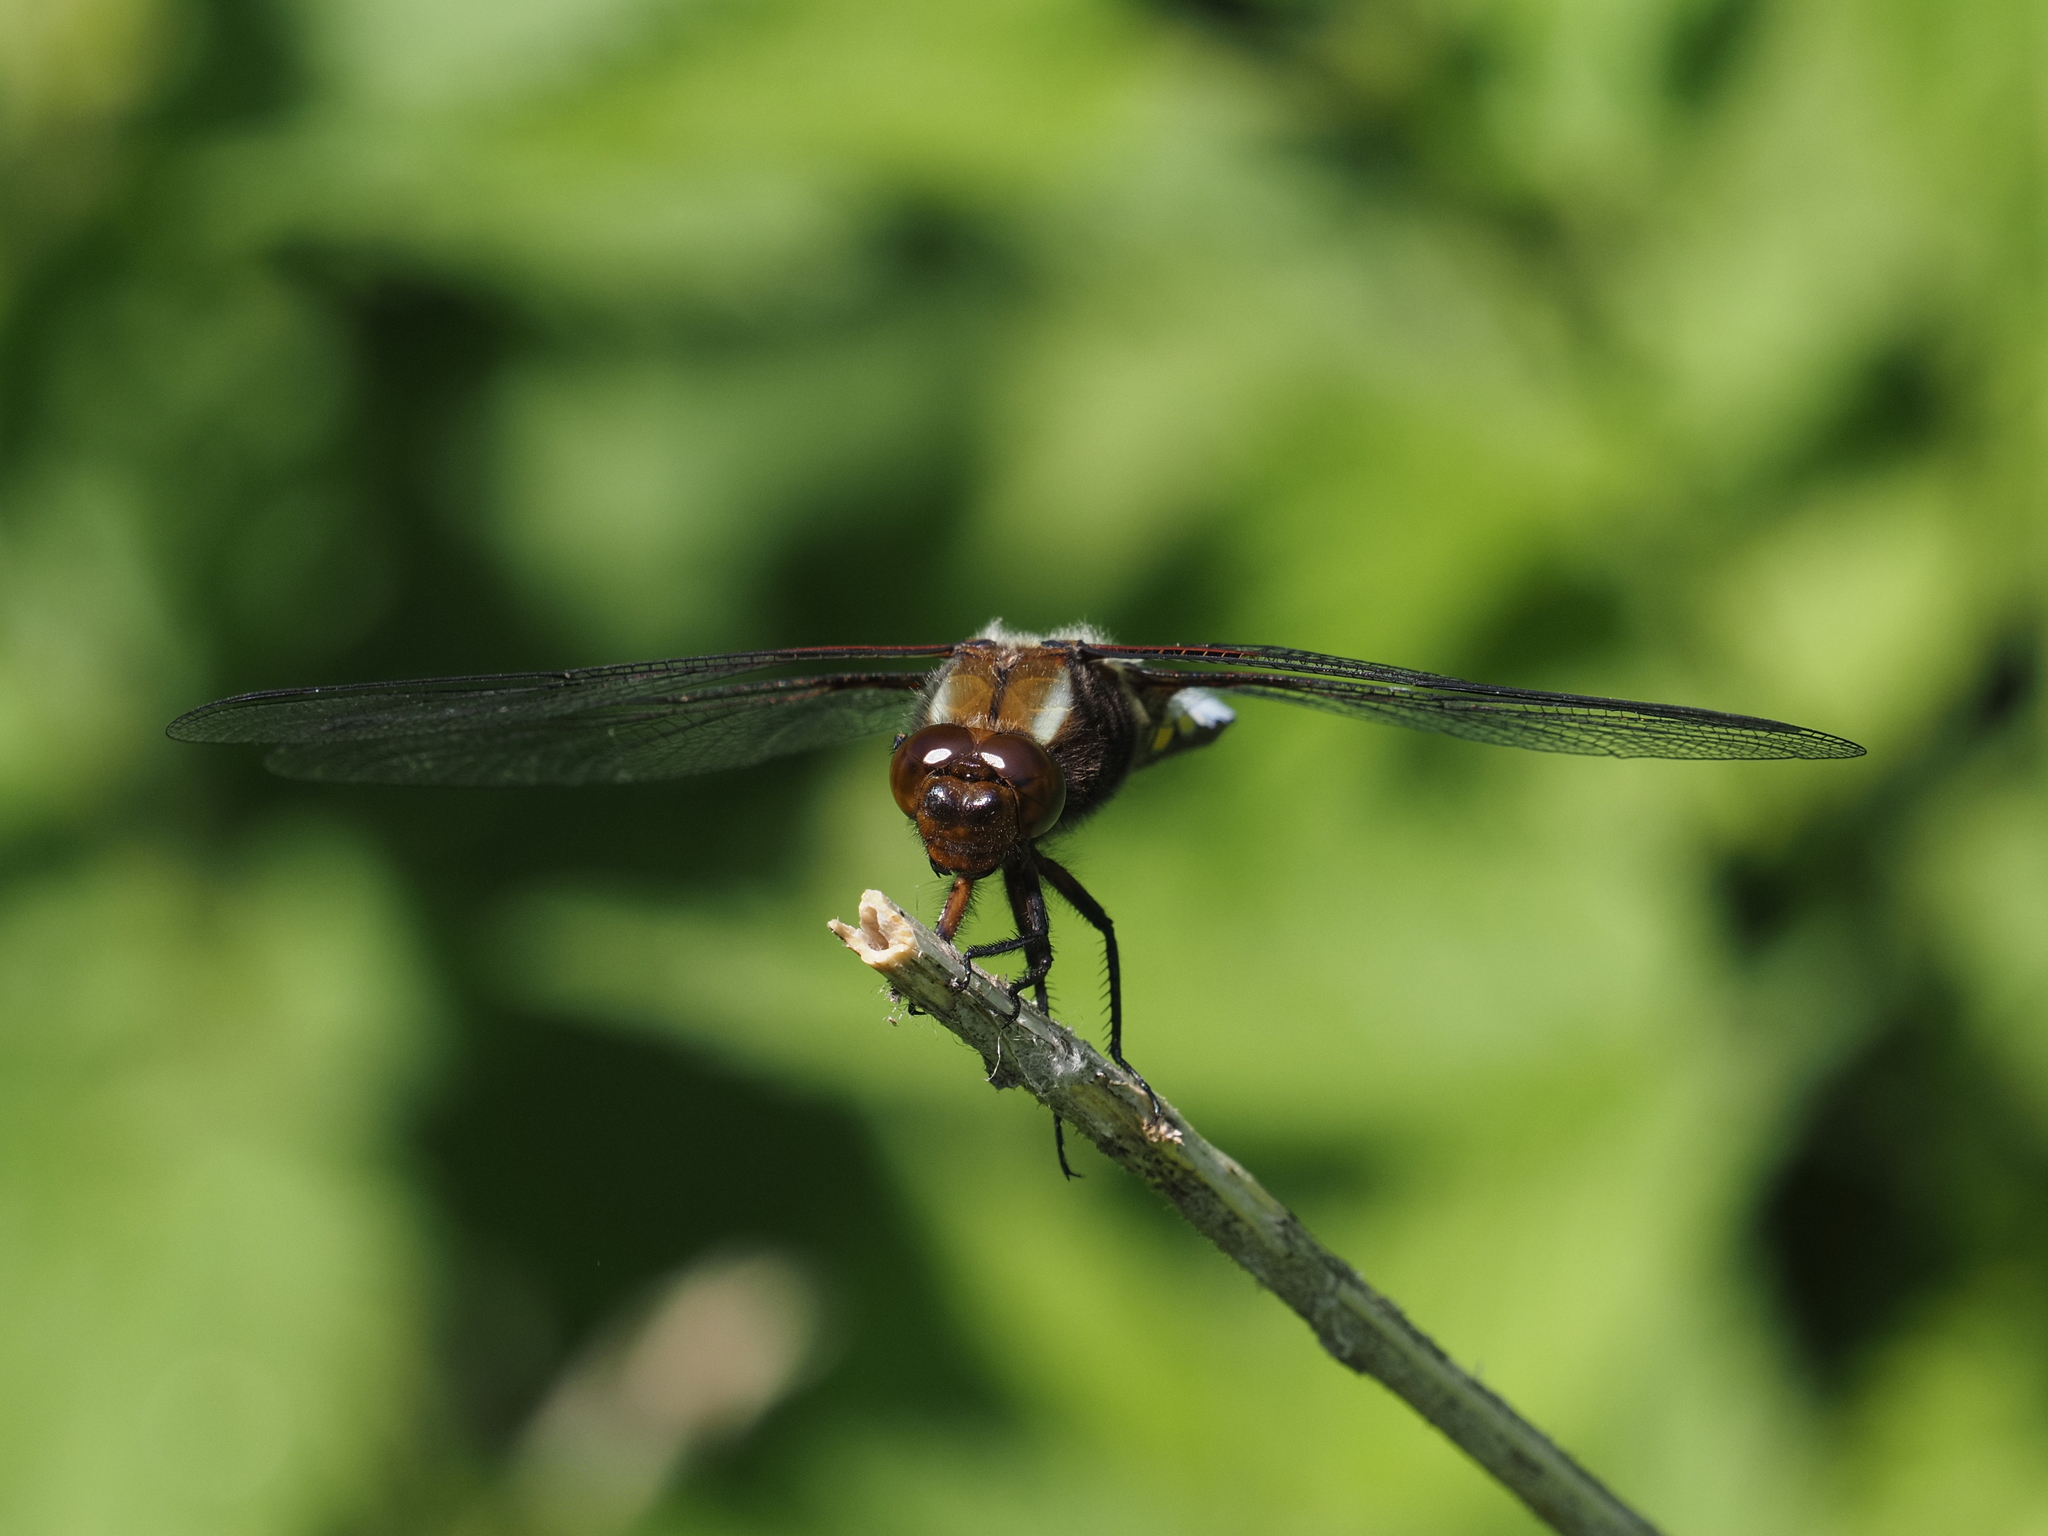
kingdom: Animalia
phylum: Arthropoda
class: Insecta
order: Odonata
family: Libellulidae
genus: Libellula
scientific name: Libellula depressa
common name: Broad-bodied chaser
